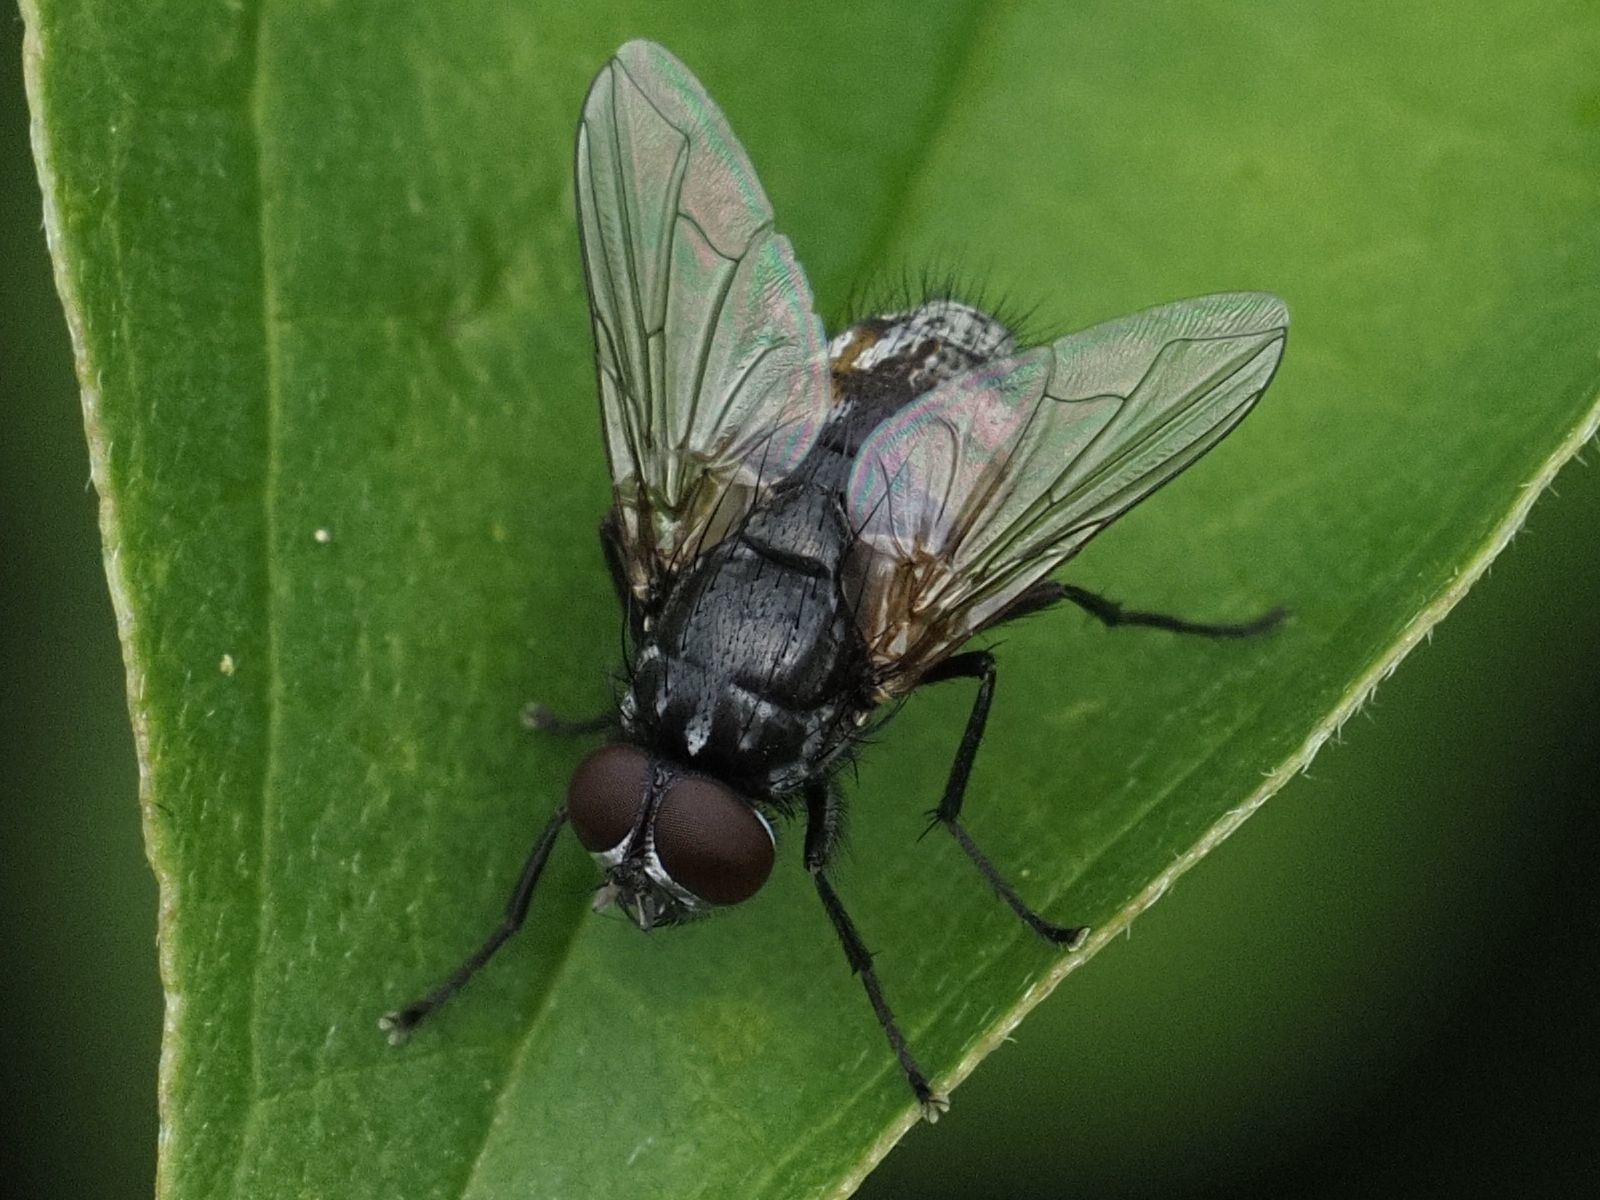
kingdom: Animalia
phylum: Arthropoda
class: Insecta
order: Diptera
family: Muscidae
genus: Musca
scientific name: Musca autumnalis
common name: Face fly
